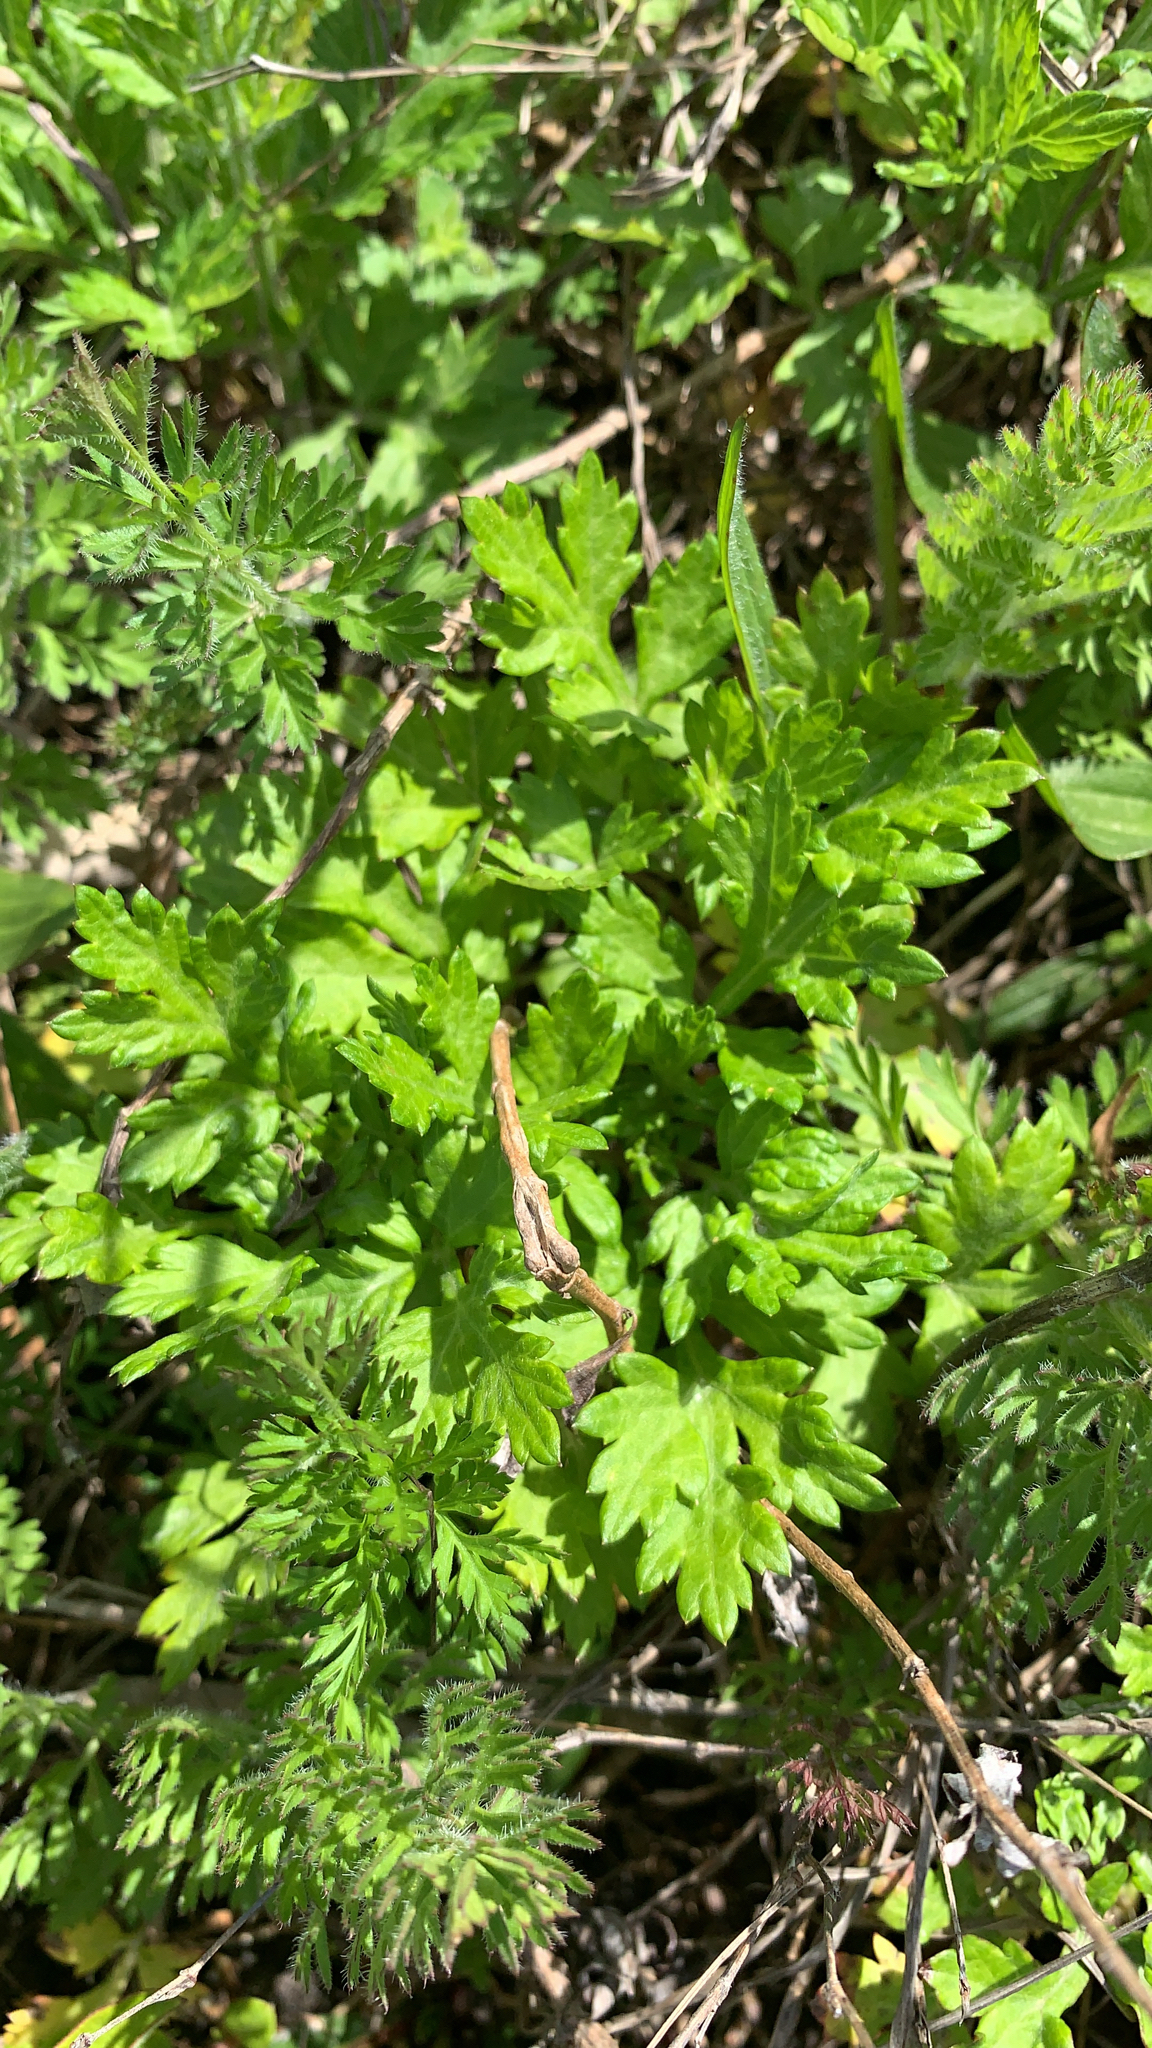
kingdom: Plantae
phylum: Tracheophyta
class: Magnoliopsida
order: Asterales
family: Asteraceae
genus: Artemisia
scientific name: Artemisia vulgaris
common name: Mugwort
